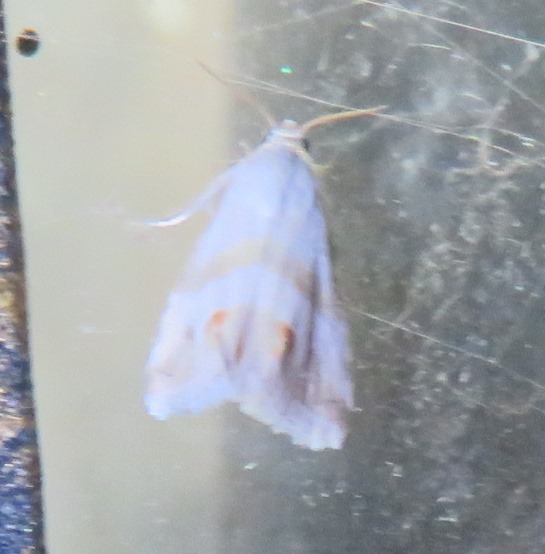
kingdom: Animalia
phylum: Arthropoda
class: Insecta
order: Lepidoptera
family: Noctuidae
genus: Eublemma
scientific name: Eublemma ornatula
